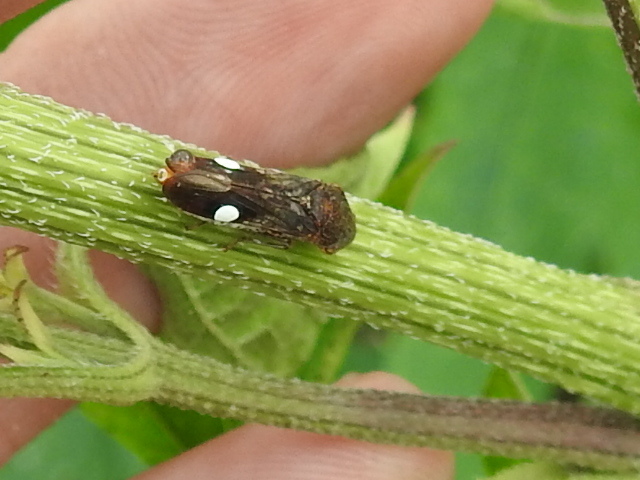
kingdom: Animalia
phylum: Arthropoda
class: Insecta
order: Hemiptera
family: Cicadellidae
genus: Homalodisca
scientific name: Homalodisca vitripennis
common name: Glassy-winged sharpshooter
